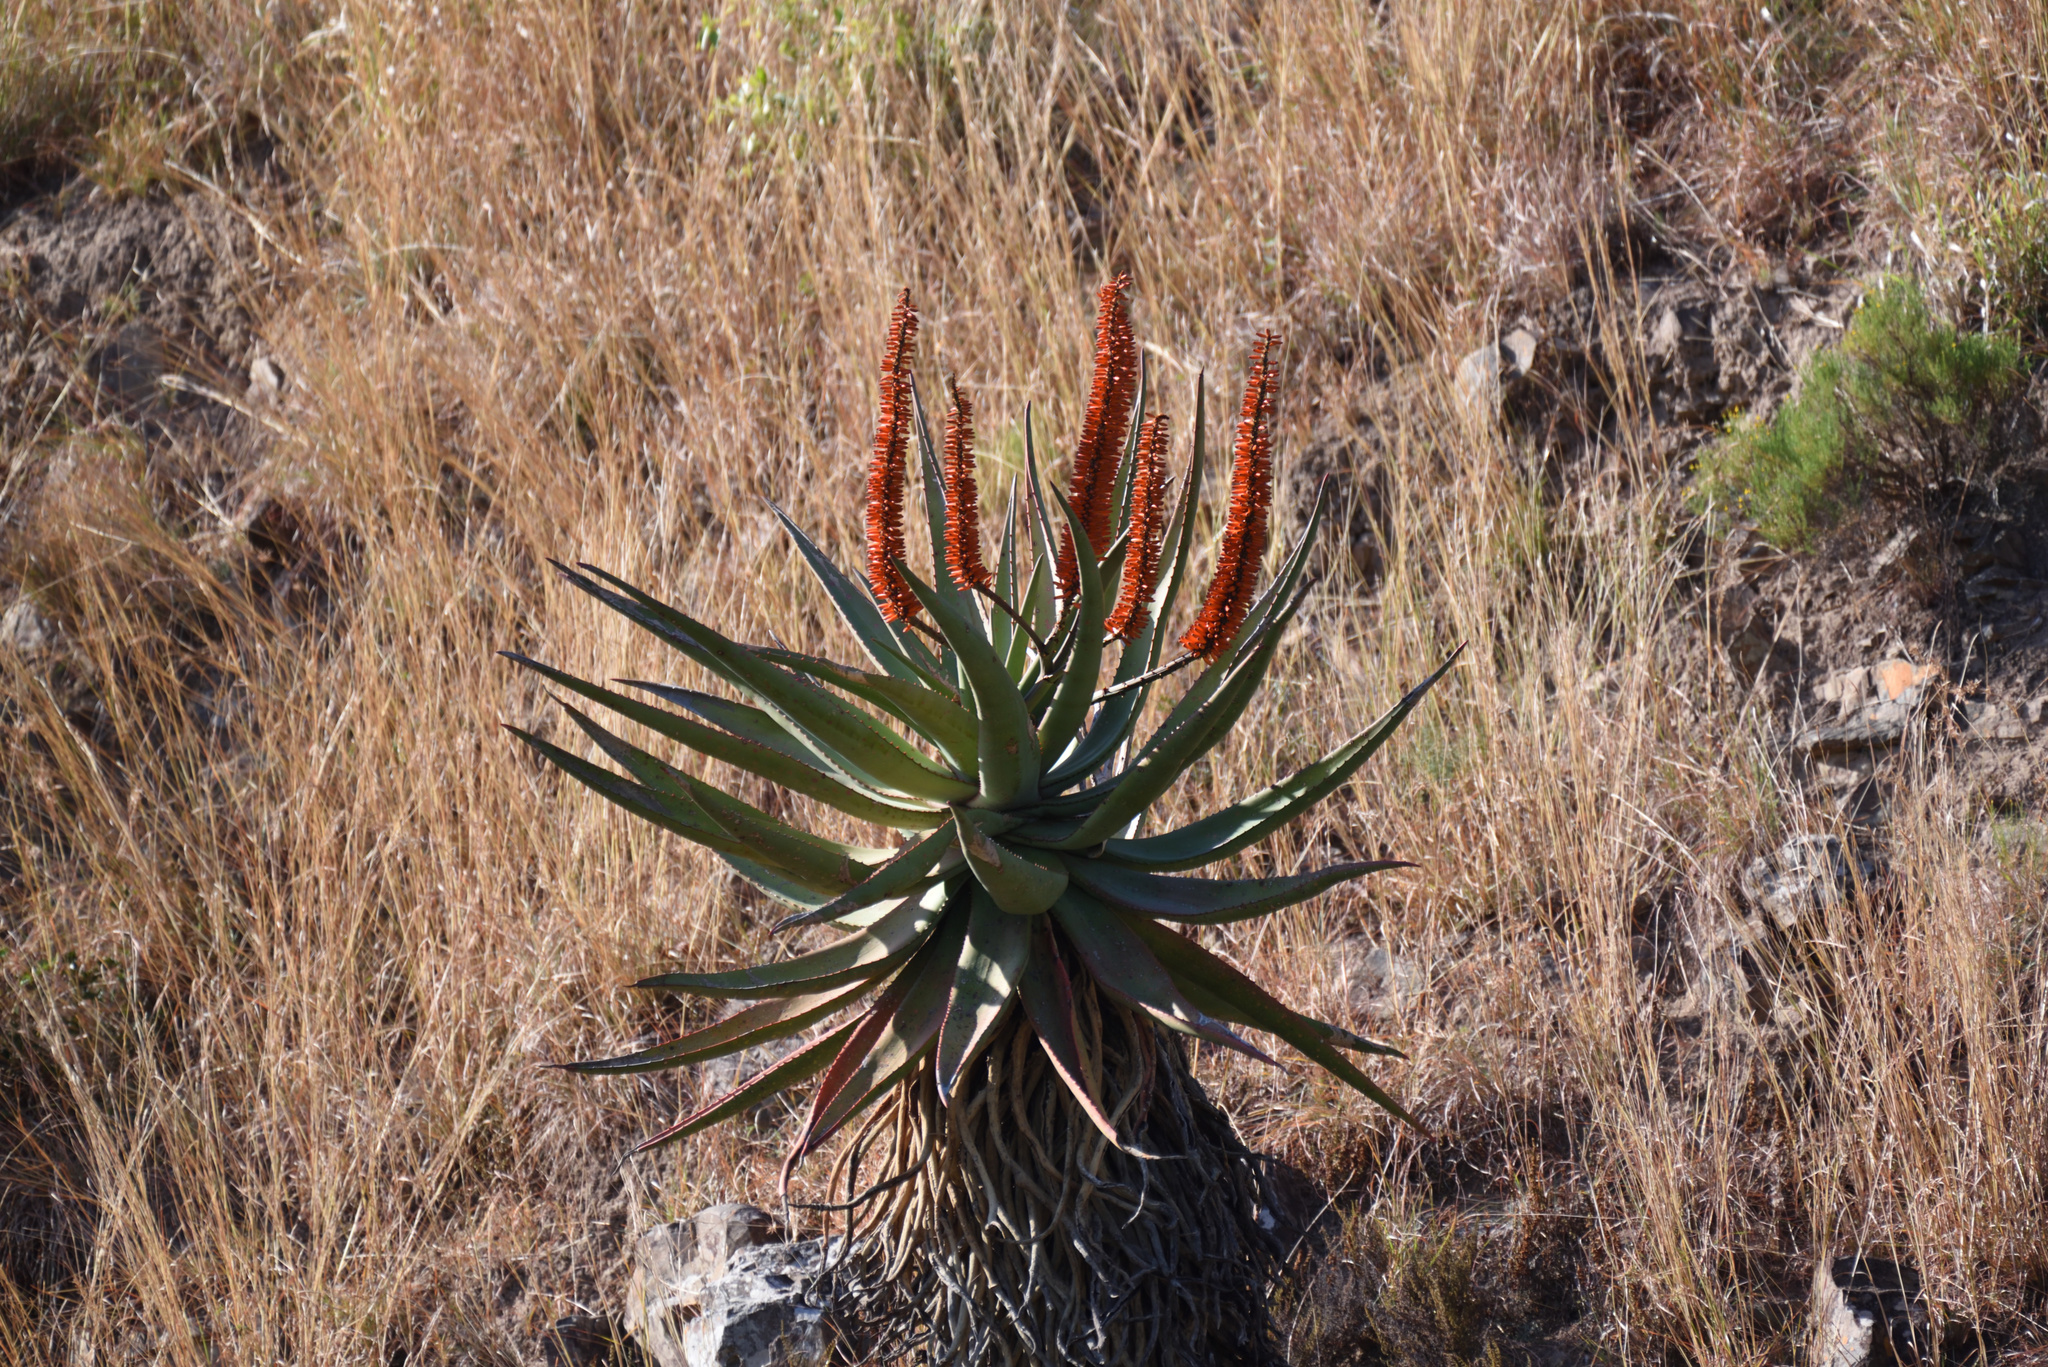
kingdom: Plantae
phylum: Tracheophyta
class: Liliopsida
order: Asparagales
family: Asphodelaceae
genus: Aloe
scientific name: Aloe ferox
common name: Bitter aloe
